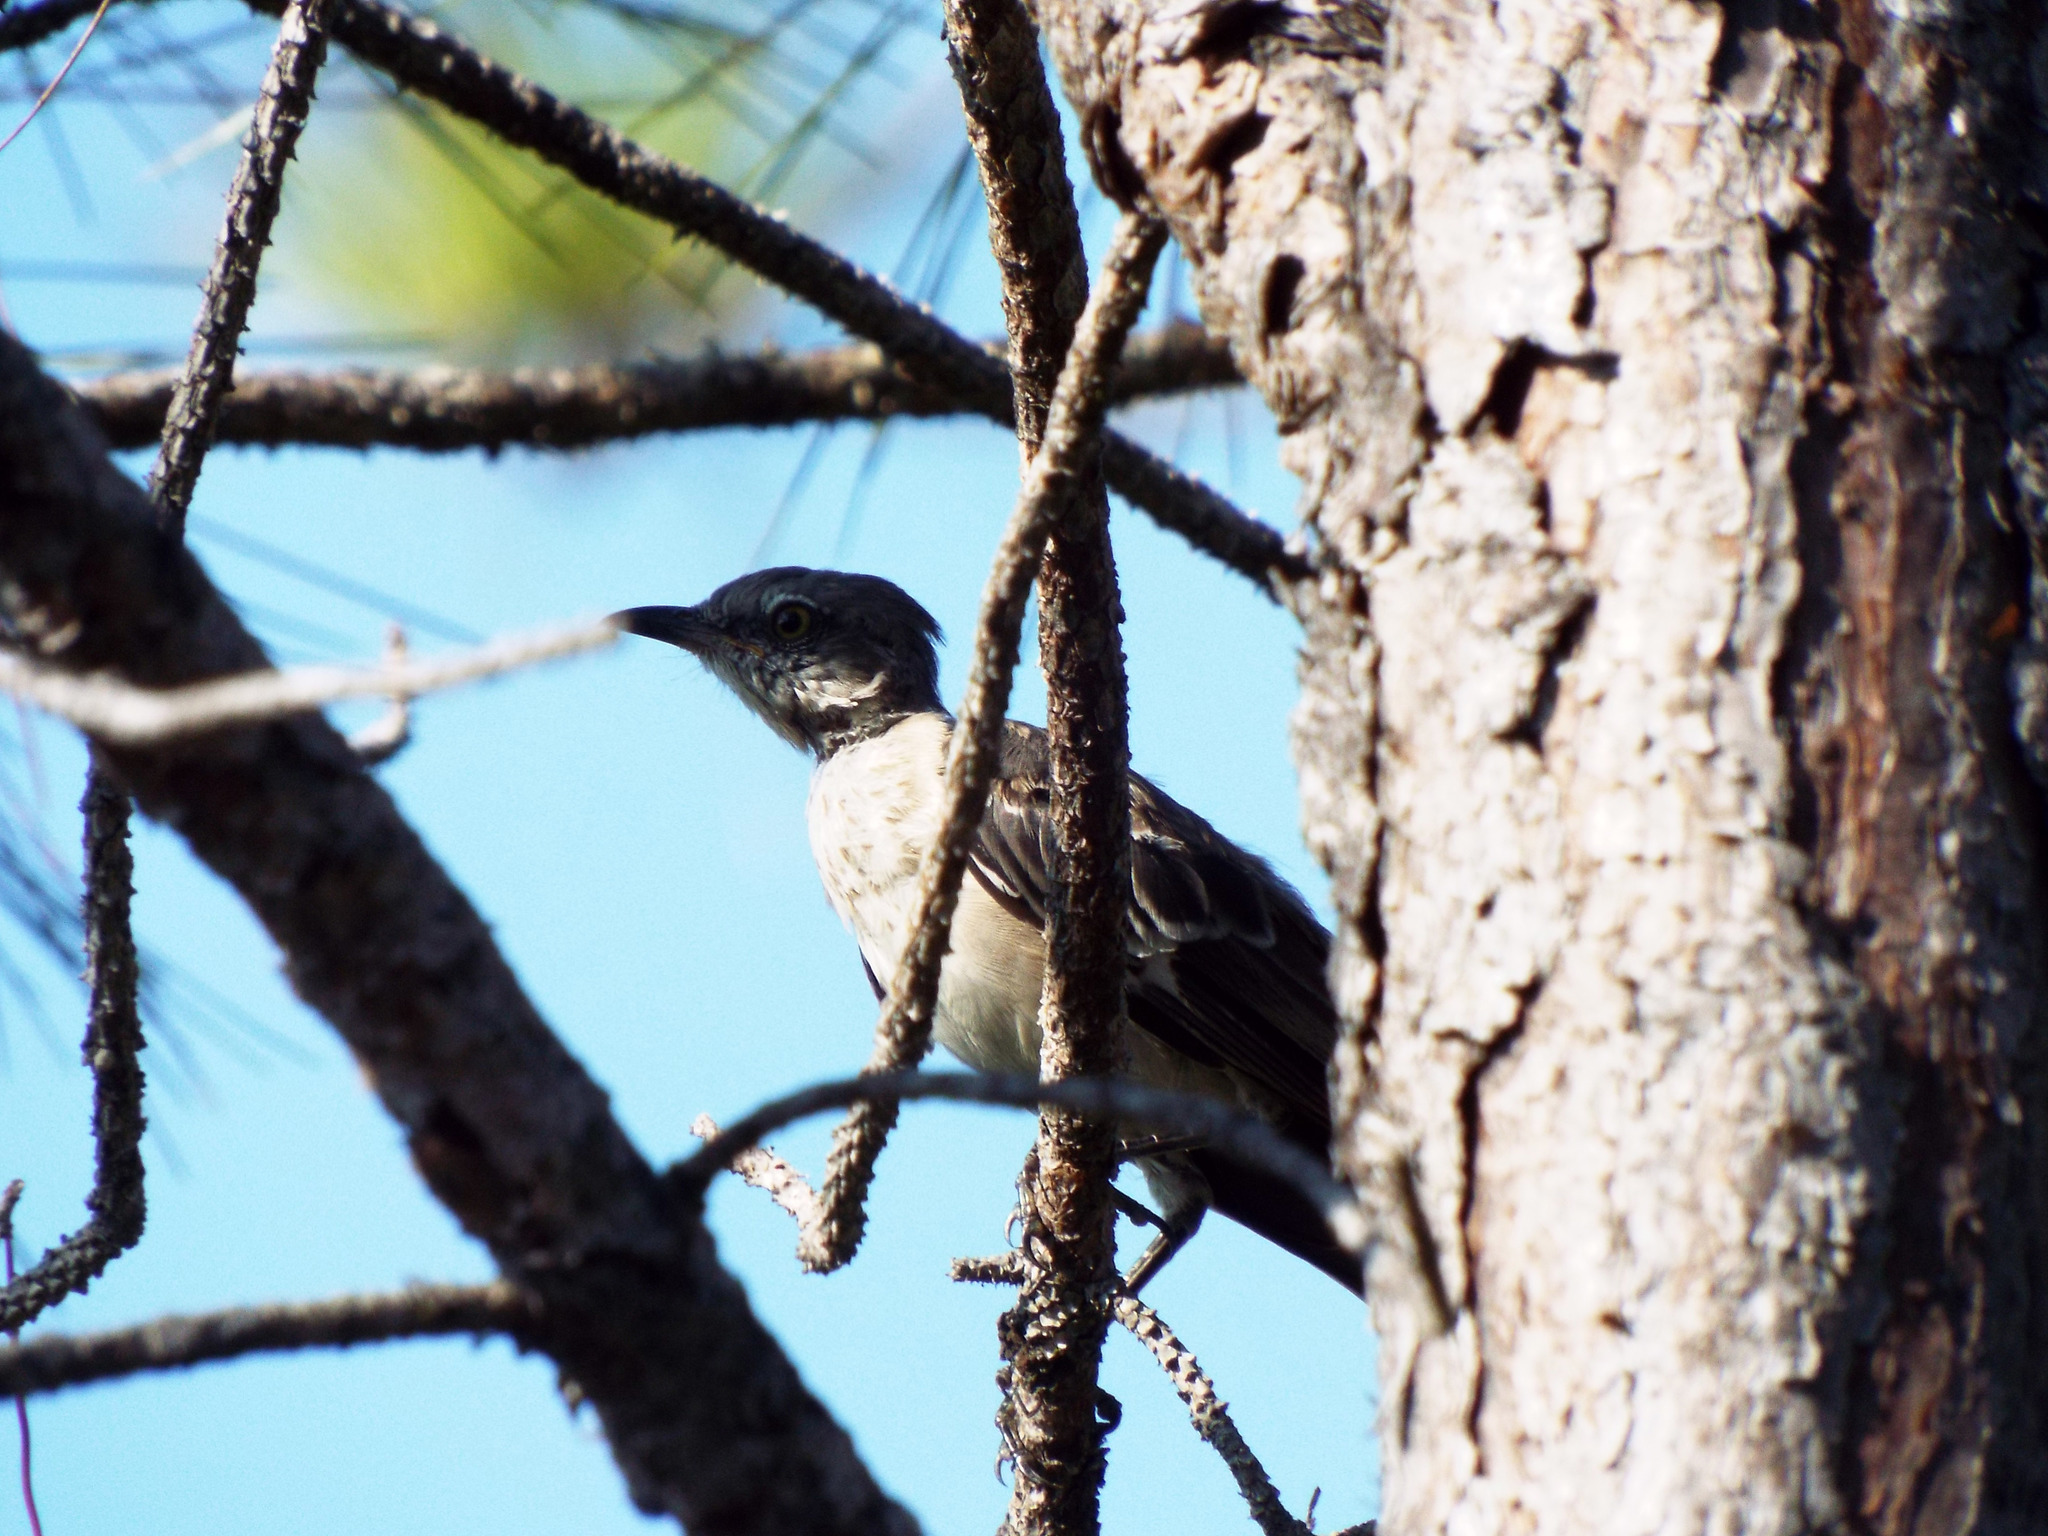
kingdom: Animalia
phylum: Chordata
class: Aves
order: Passeriformes
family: Mimidae
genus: Mimus
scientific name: Mimus polyglottos
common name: Northern mockingbird
